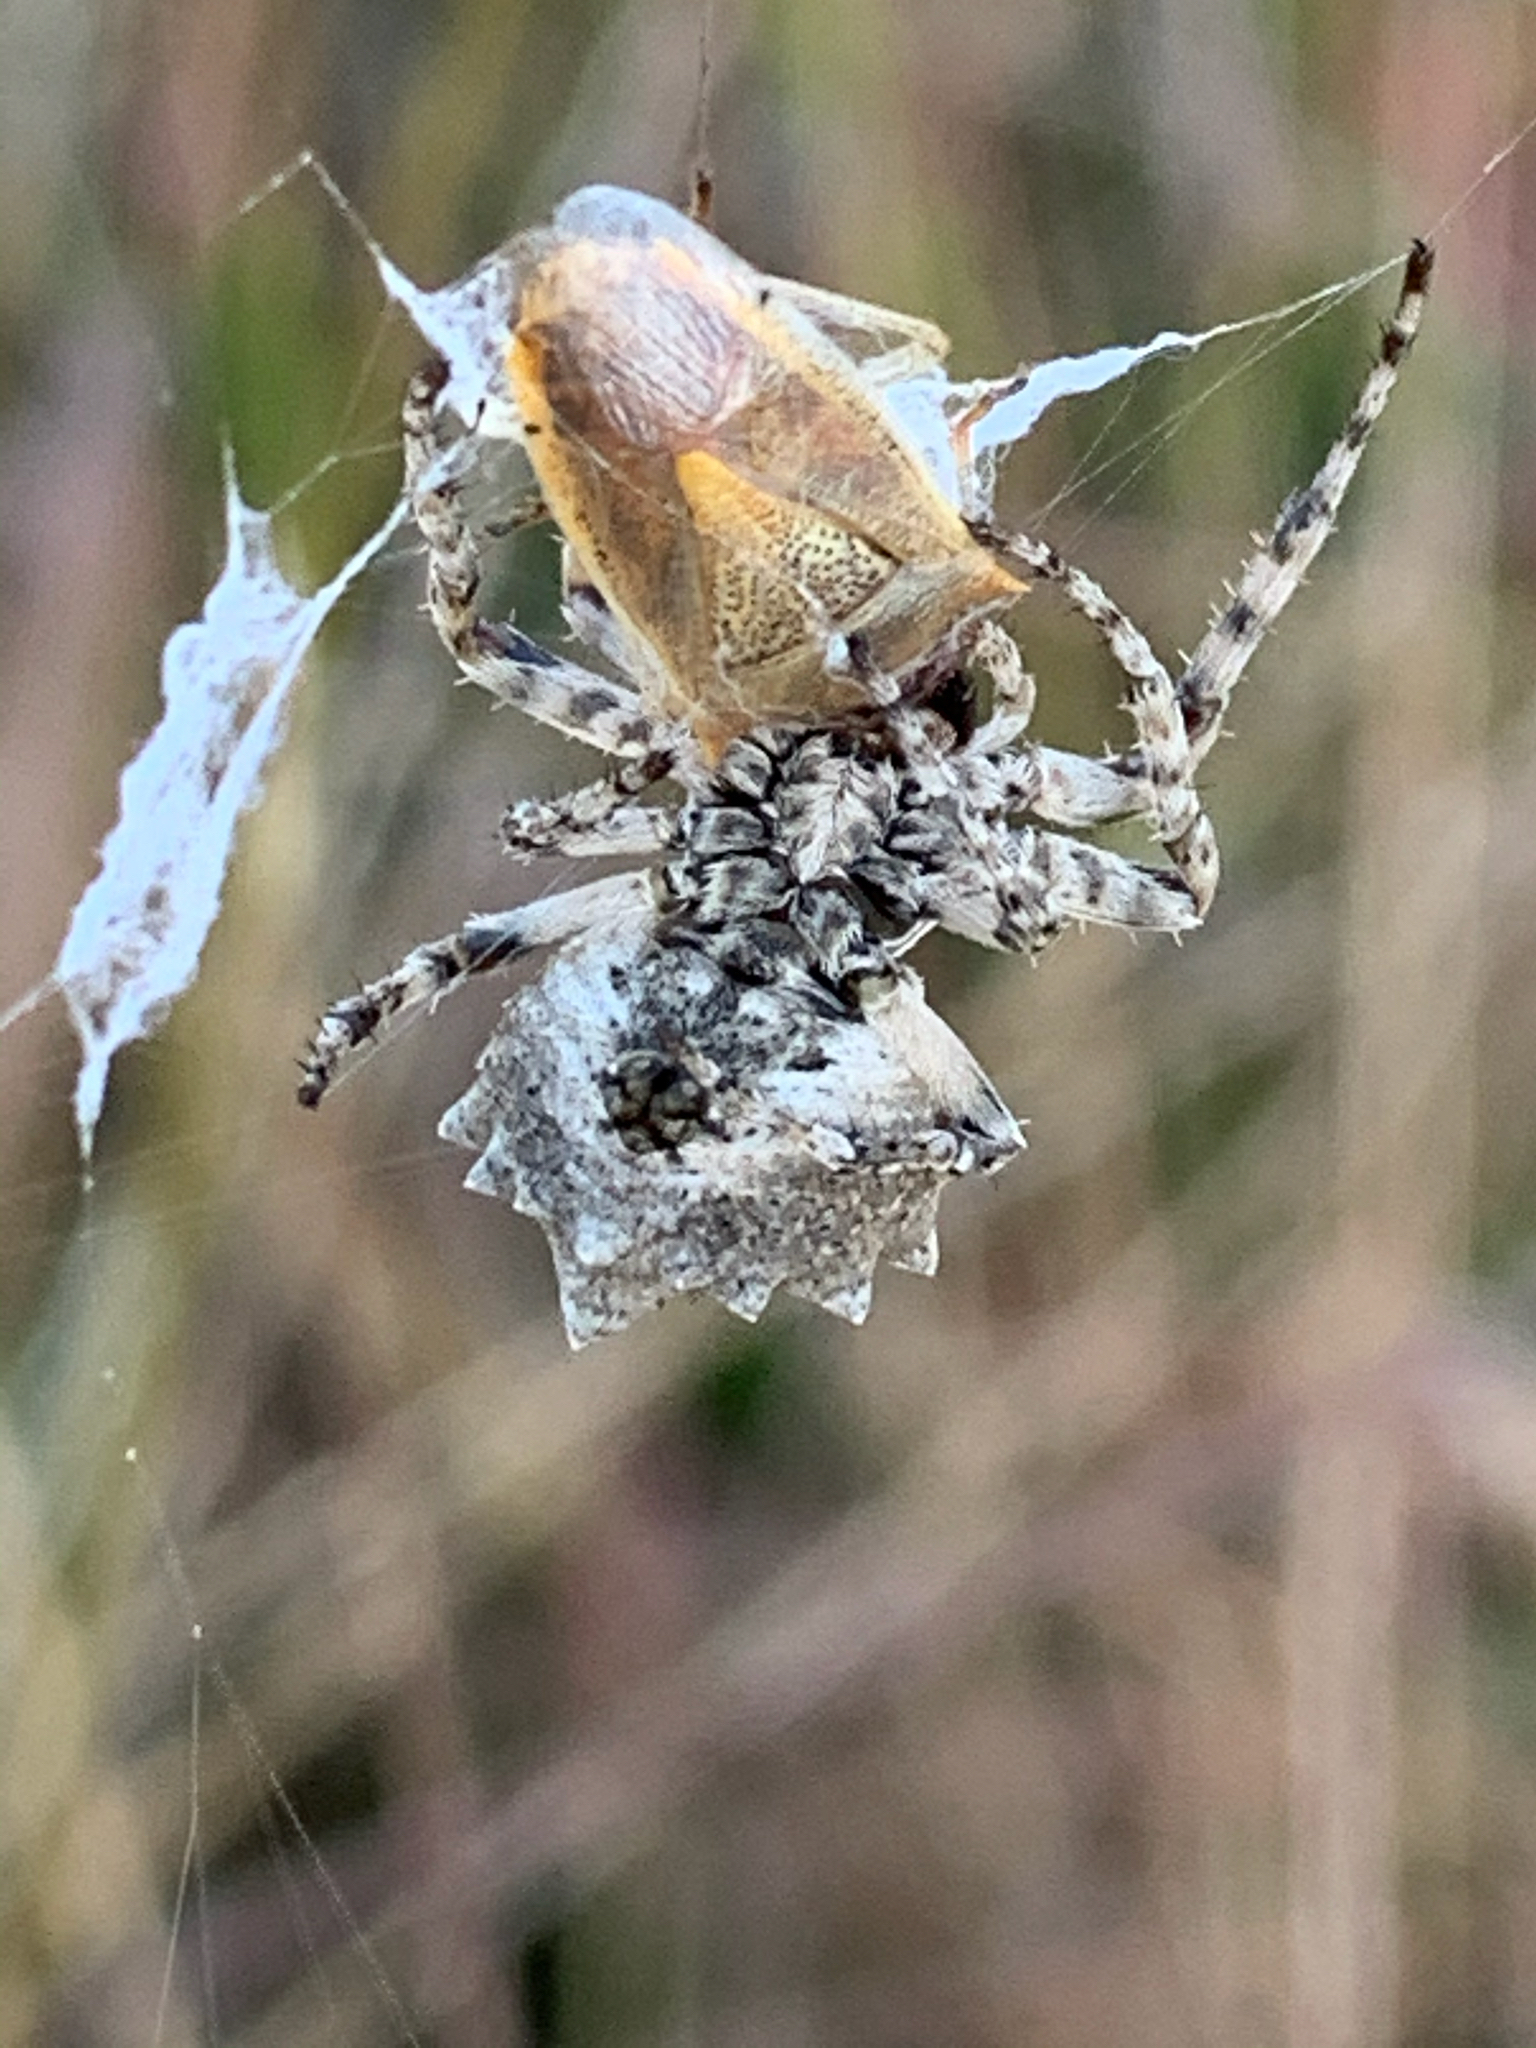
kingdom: Animalia
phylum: Arthropoda
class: Arachnida
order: Araneae
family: Araneidae
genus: Acanthepeira
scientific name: Acanthepeira stellata
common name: Starbellied orbweaver
